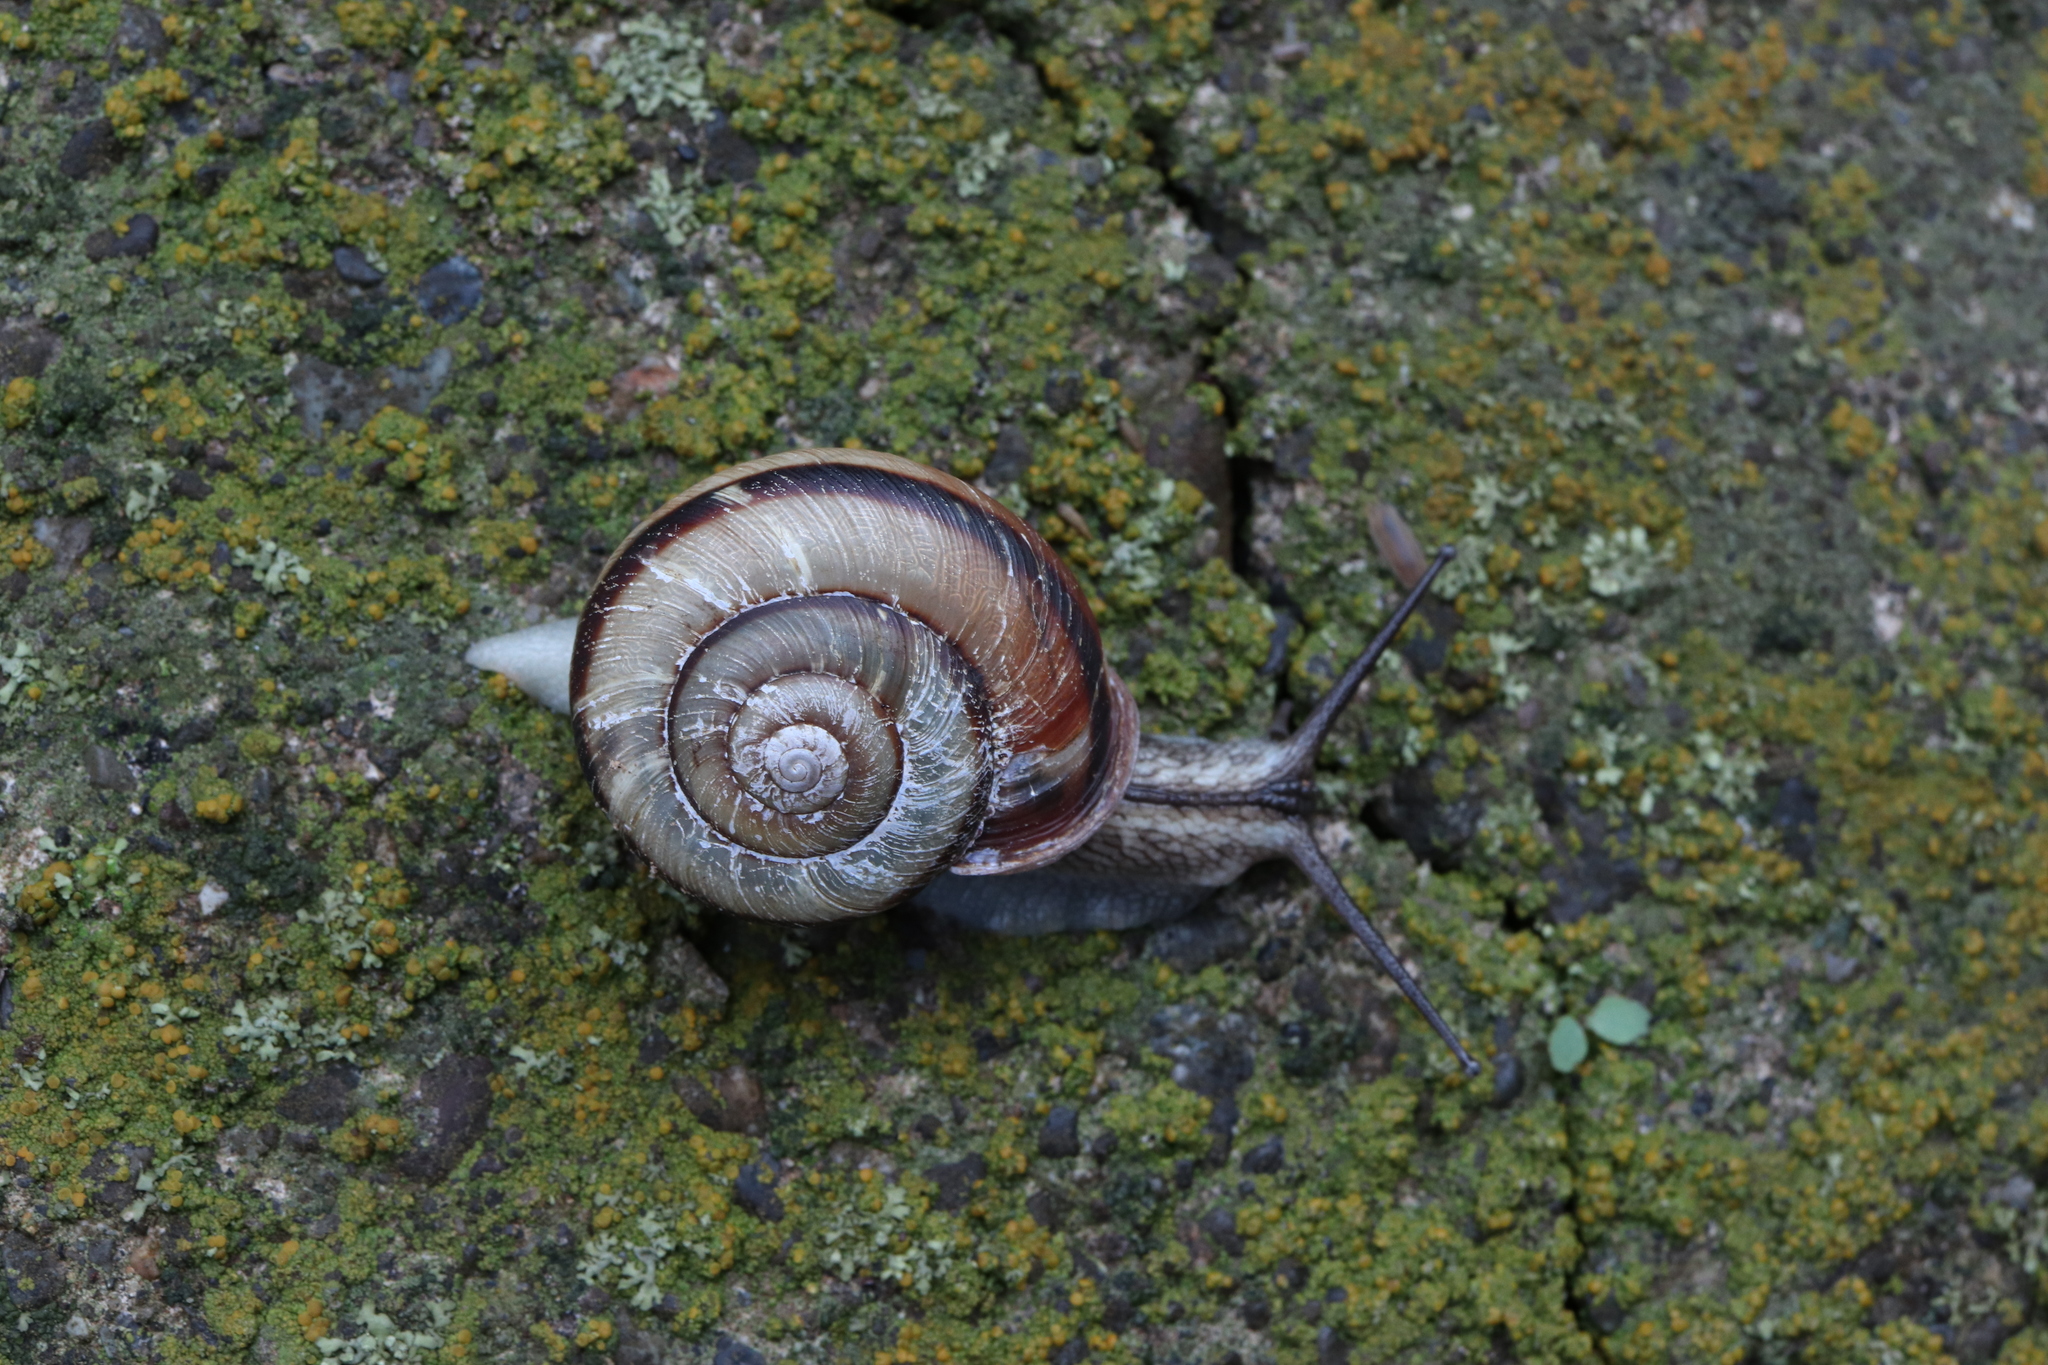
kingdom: Animalia
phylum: Mollusca
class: Gastropoda
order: Stylommatophora
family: Camaenidae
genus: Euhadra
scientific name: Euhadra peliomphala
